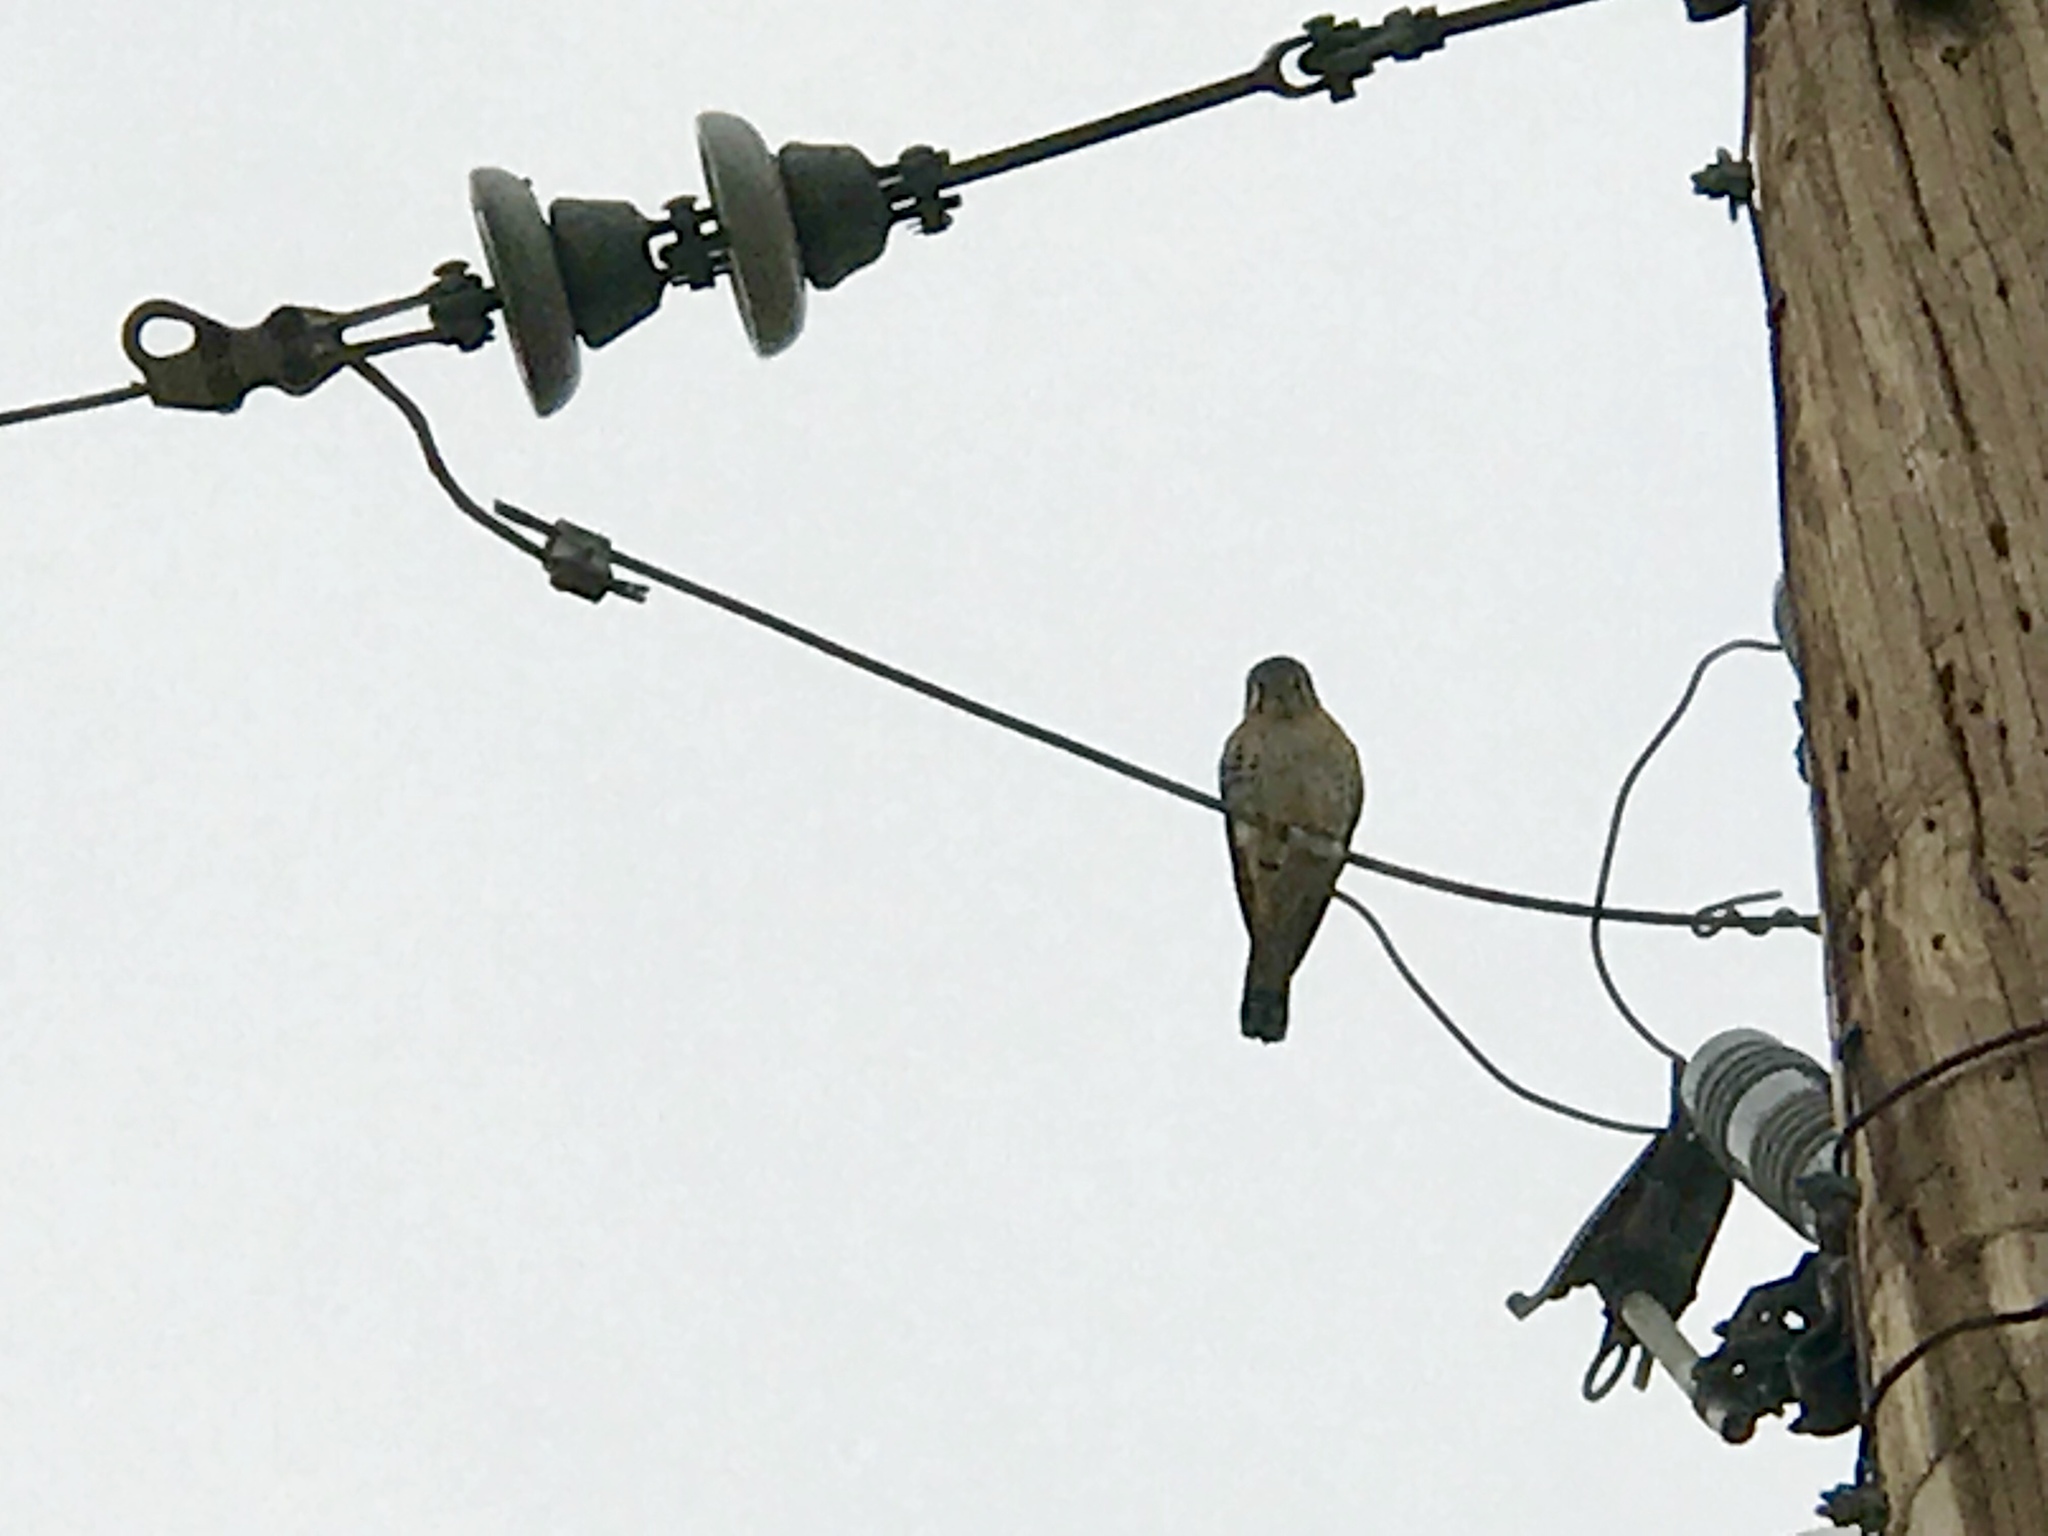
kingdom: Animalia
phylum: Chordata
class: Aves
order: Falconiformes
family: Falconidae
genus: Falco
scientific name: Falco sparverius
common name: American kestrel
